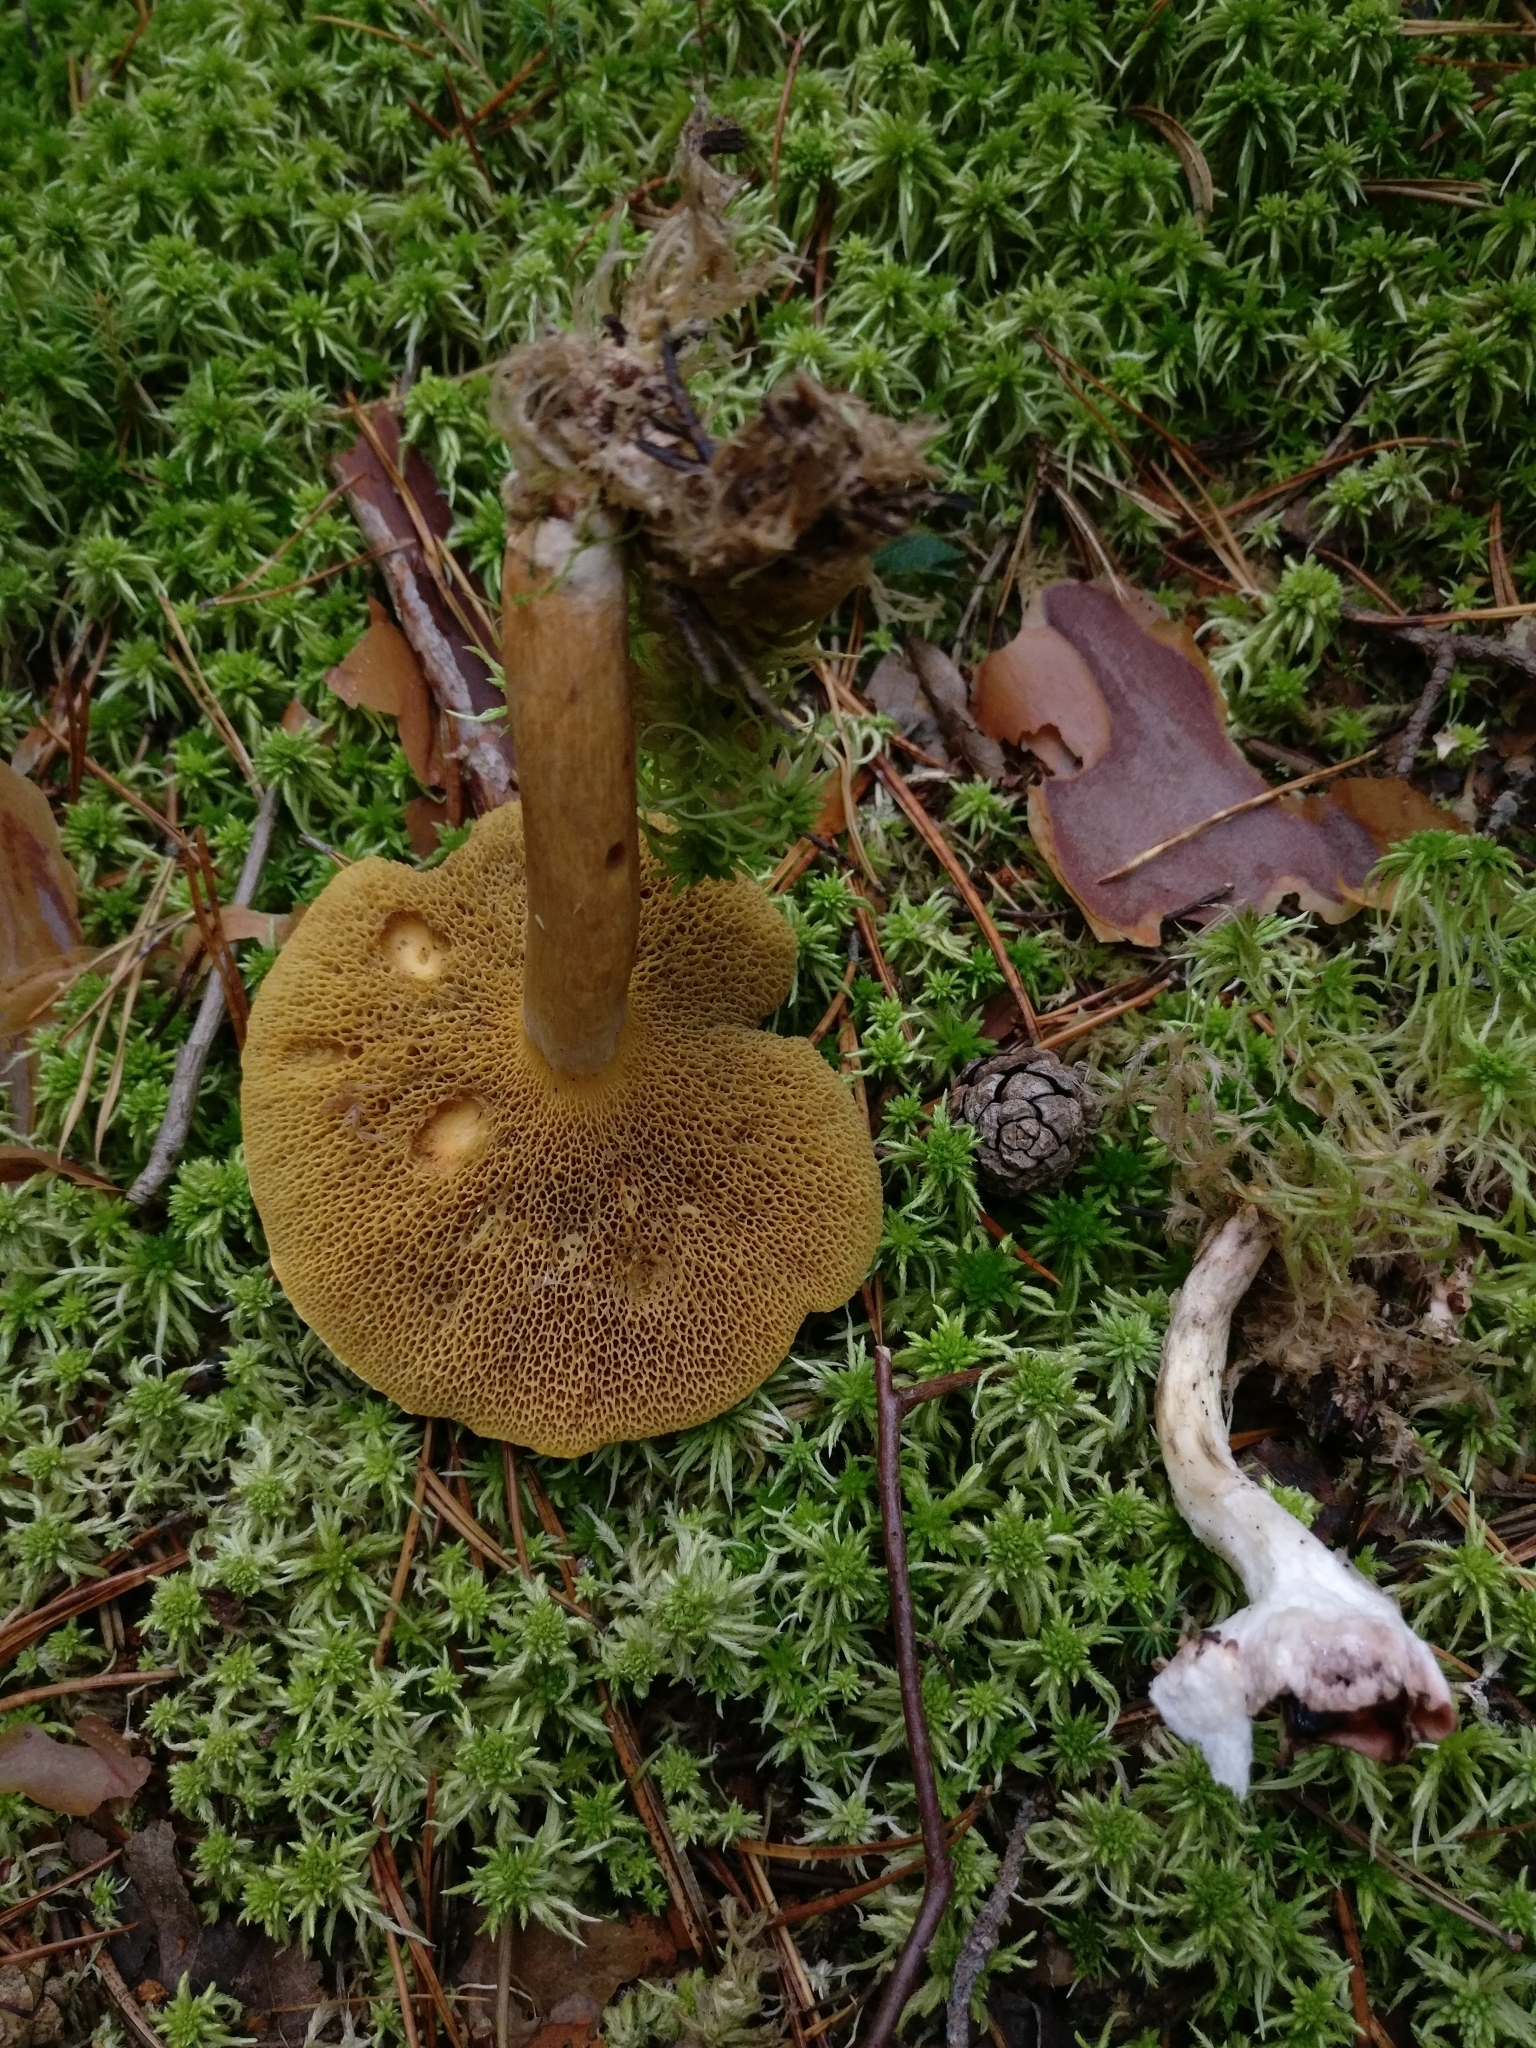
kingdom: Fungi
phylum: Basidiomycota
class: Agaricomycetes
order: Boletales
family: Suillaceae
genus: Suillus
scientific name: Suillus bovinus
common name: Bovine bolete
